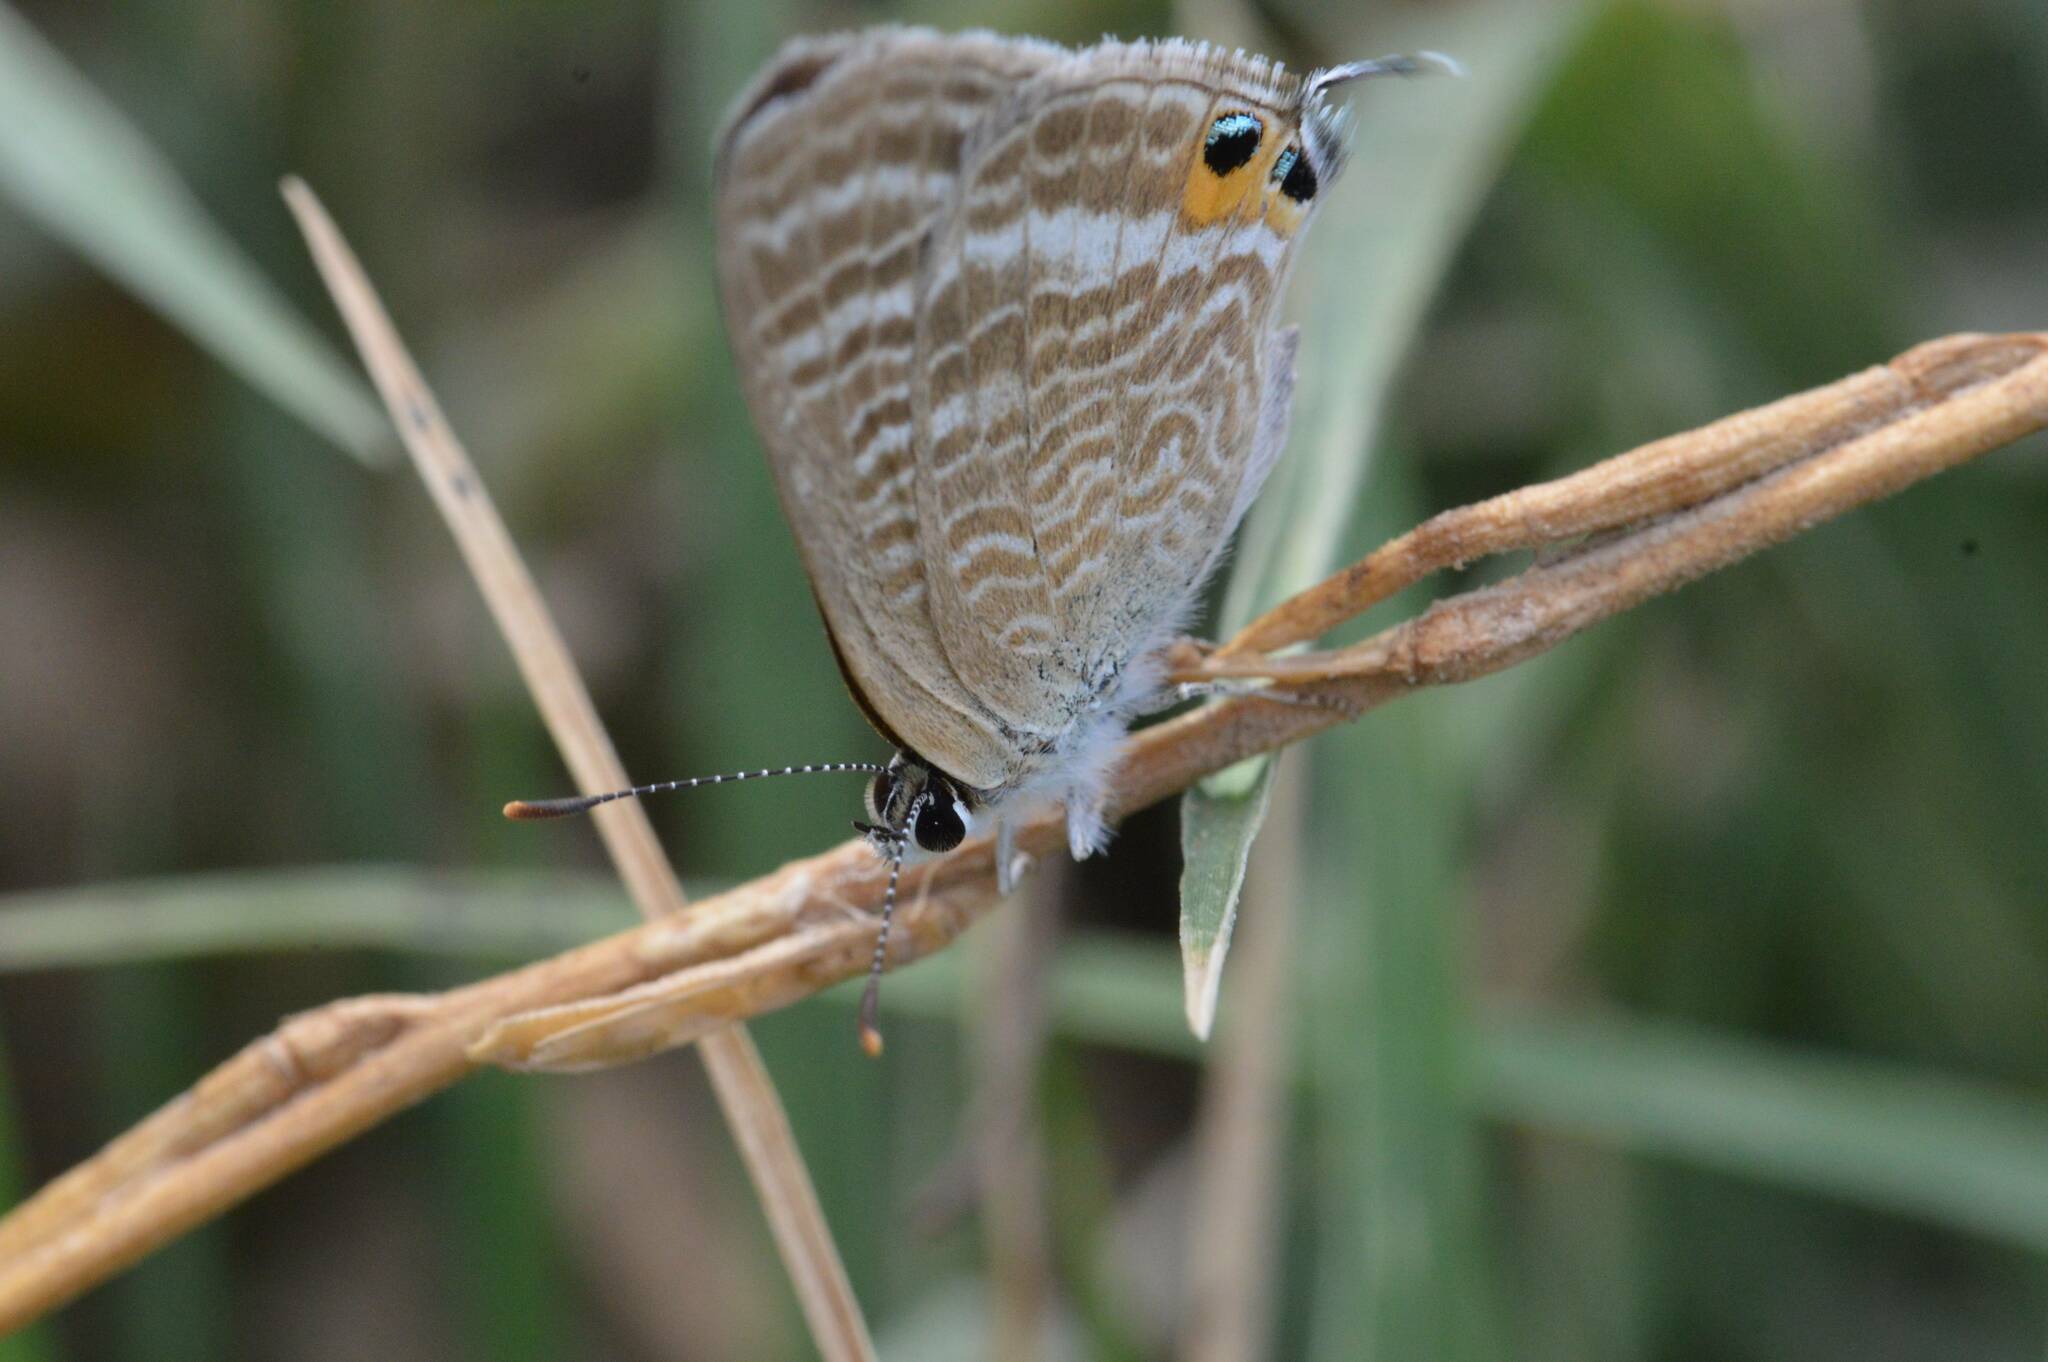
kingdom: Animalia
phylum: Arthropoda
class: Insecta
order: Lepidoptera
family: Lycaenidae
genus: Lampides
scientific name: Lampides boeticus
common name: Long-tailed blue
